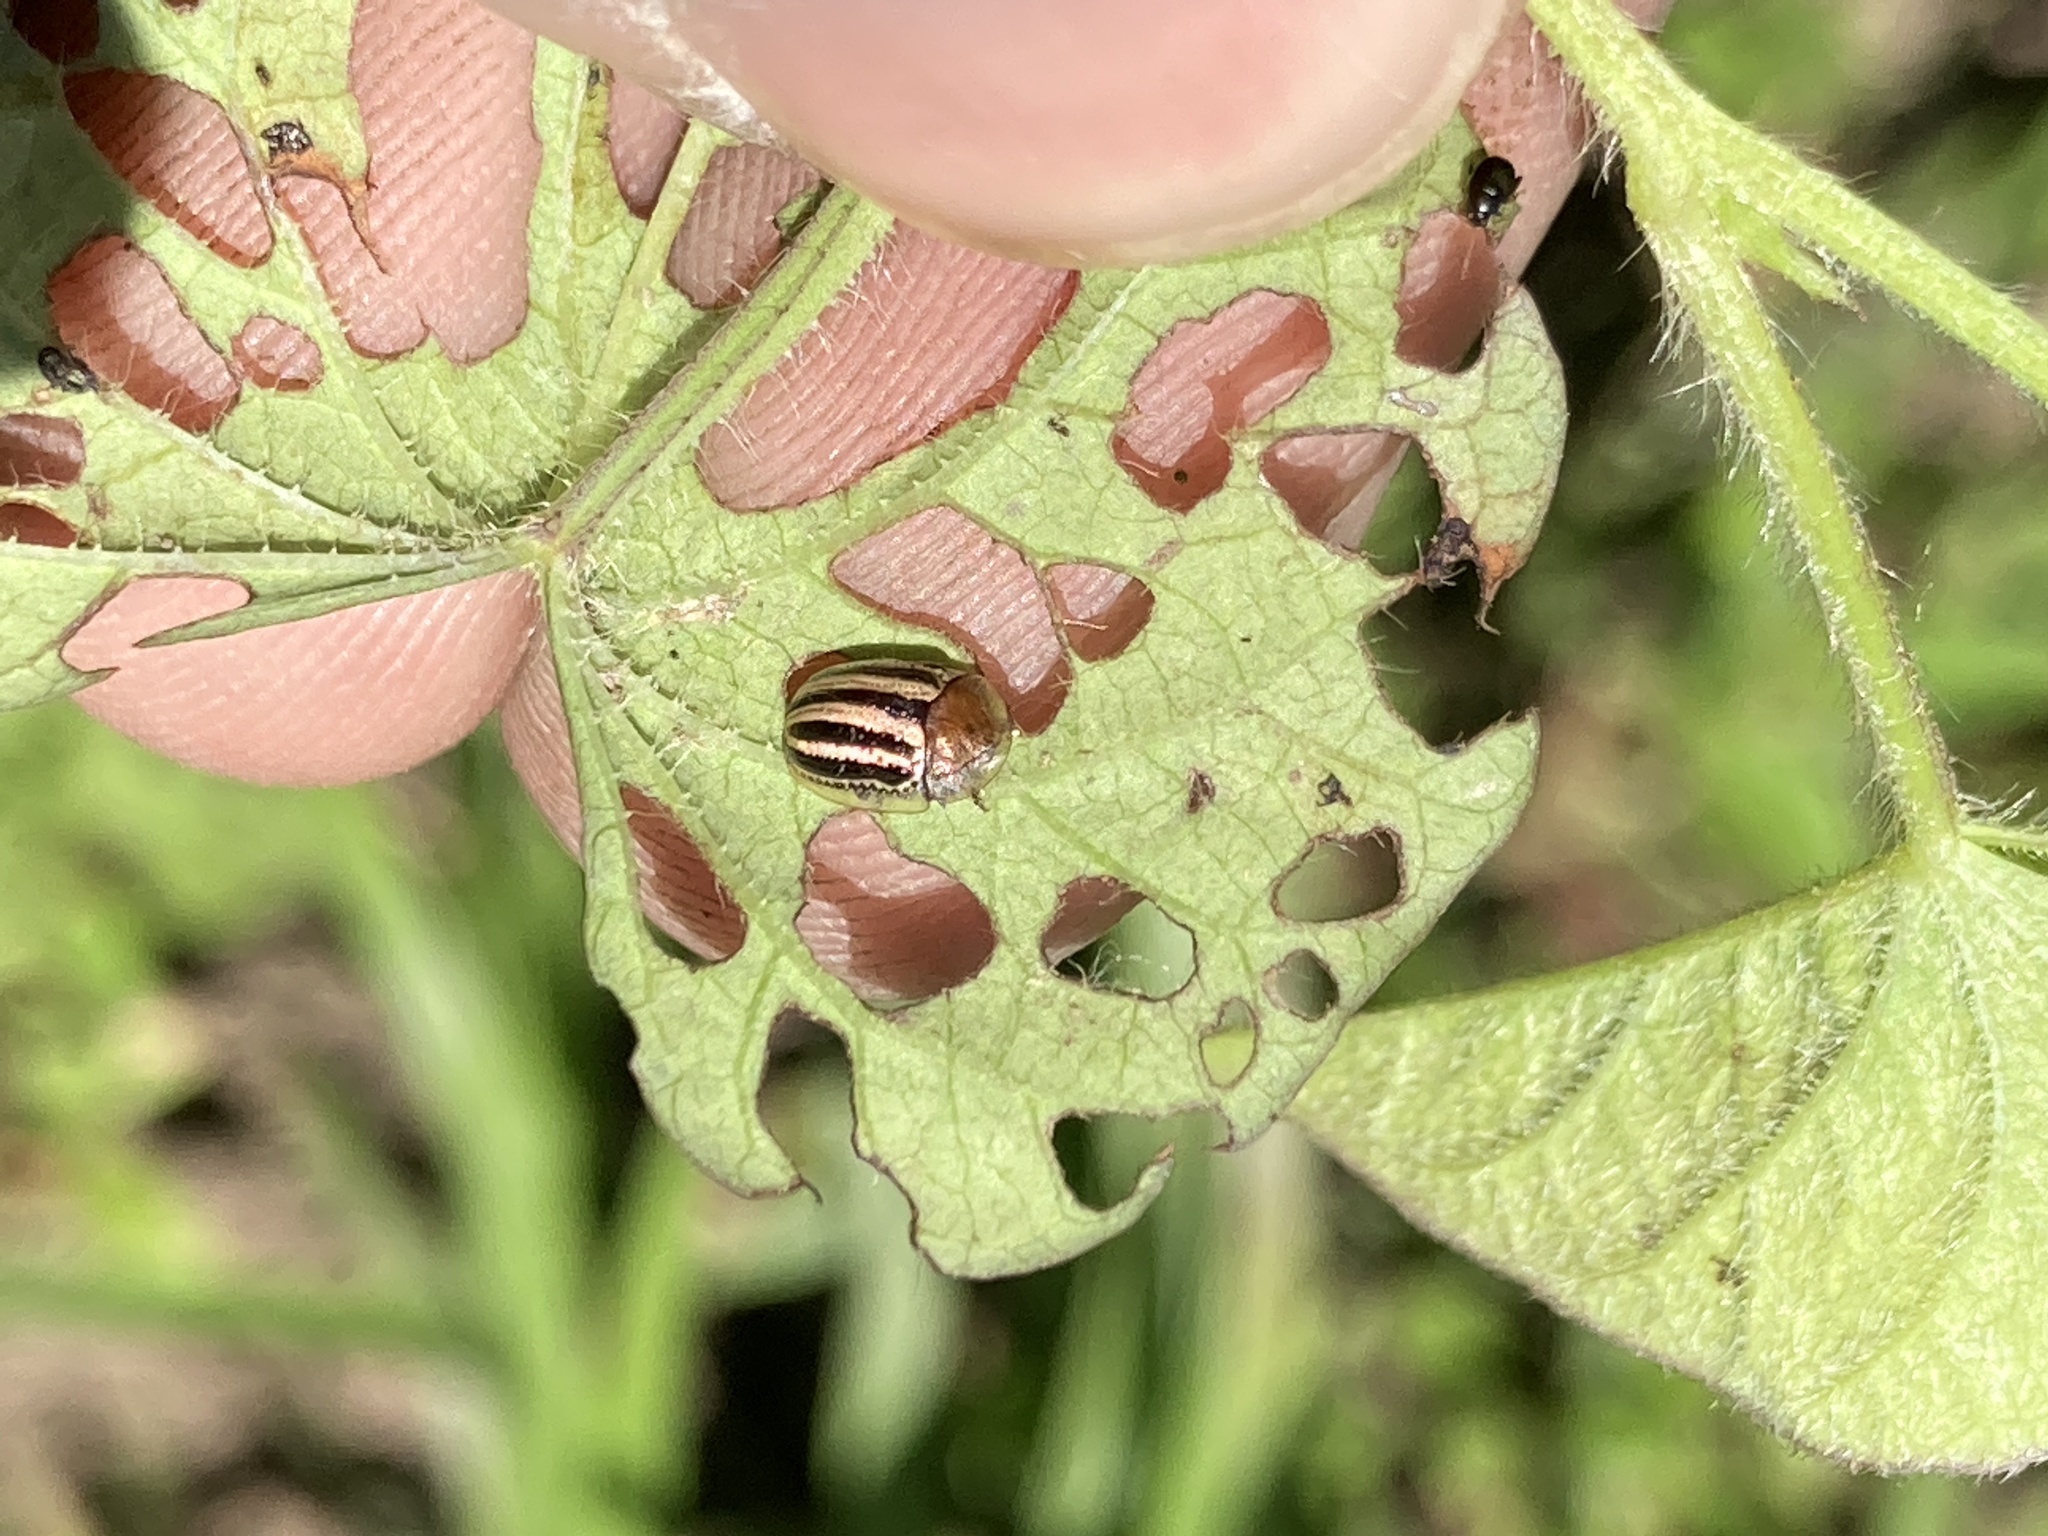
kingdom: Animalia
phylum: Arthropoda
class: Insecta
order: Coleoptera
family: Chrysomelidae
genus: Agroiconota
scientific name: Agroiconota bivittata
